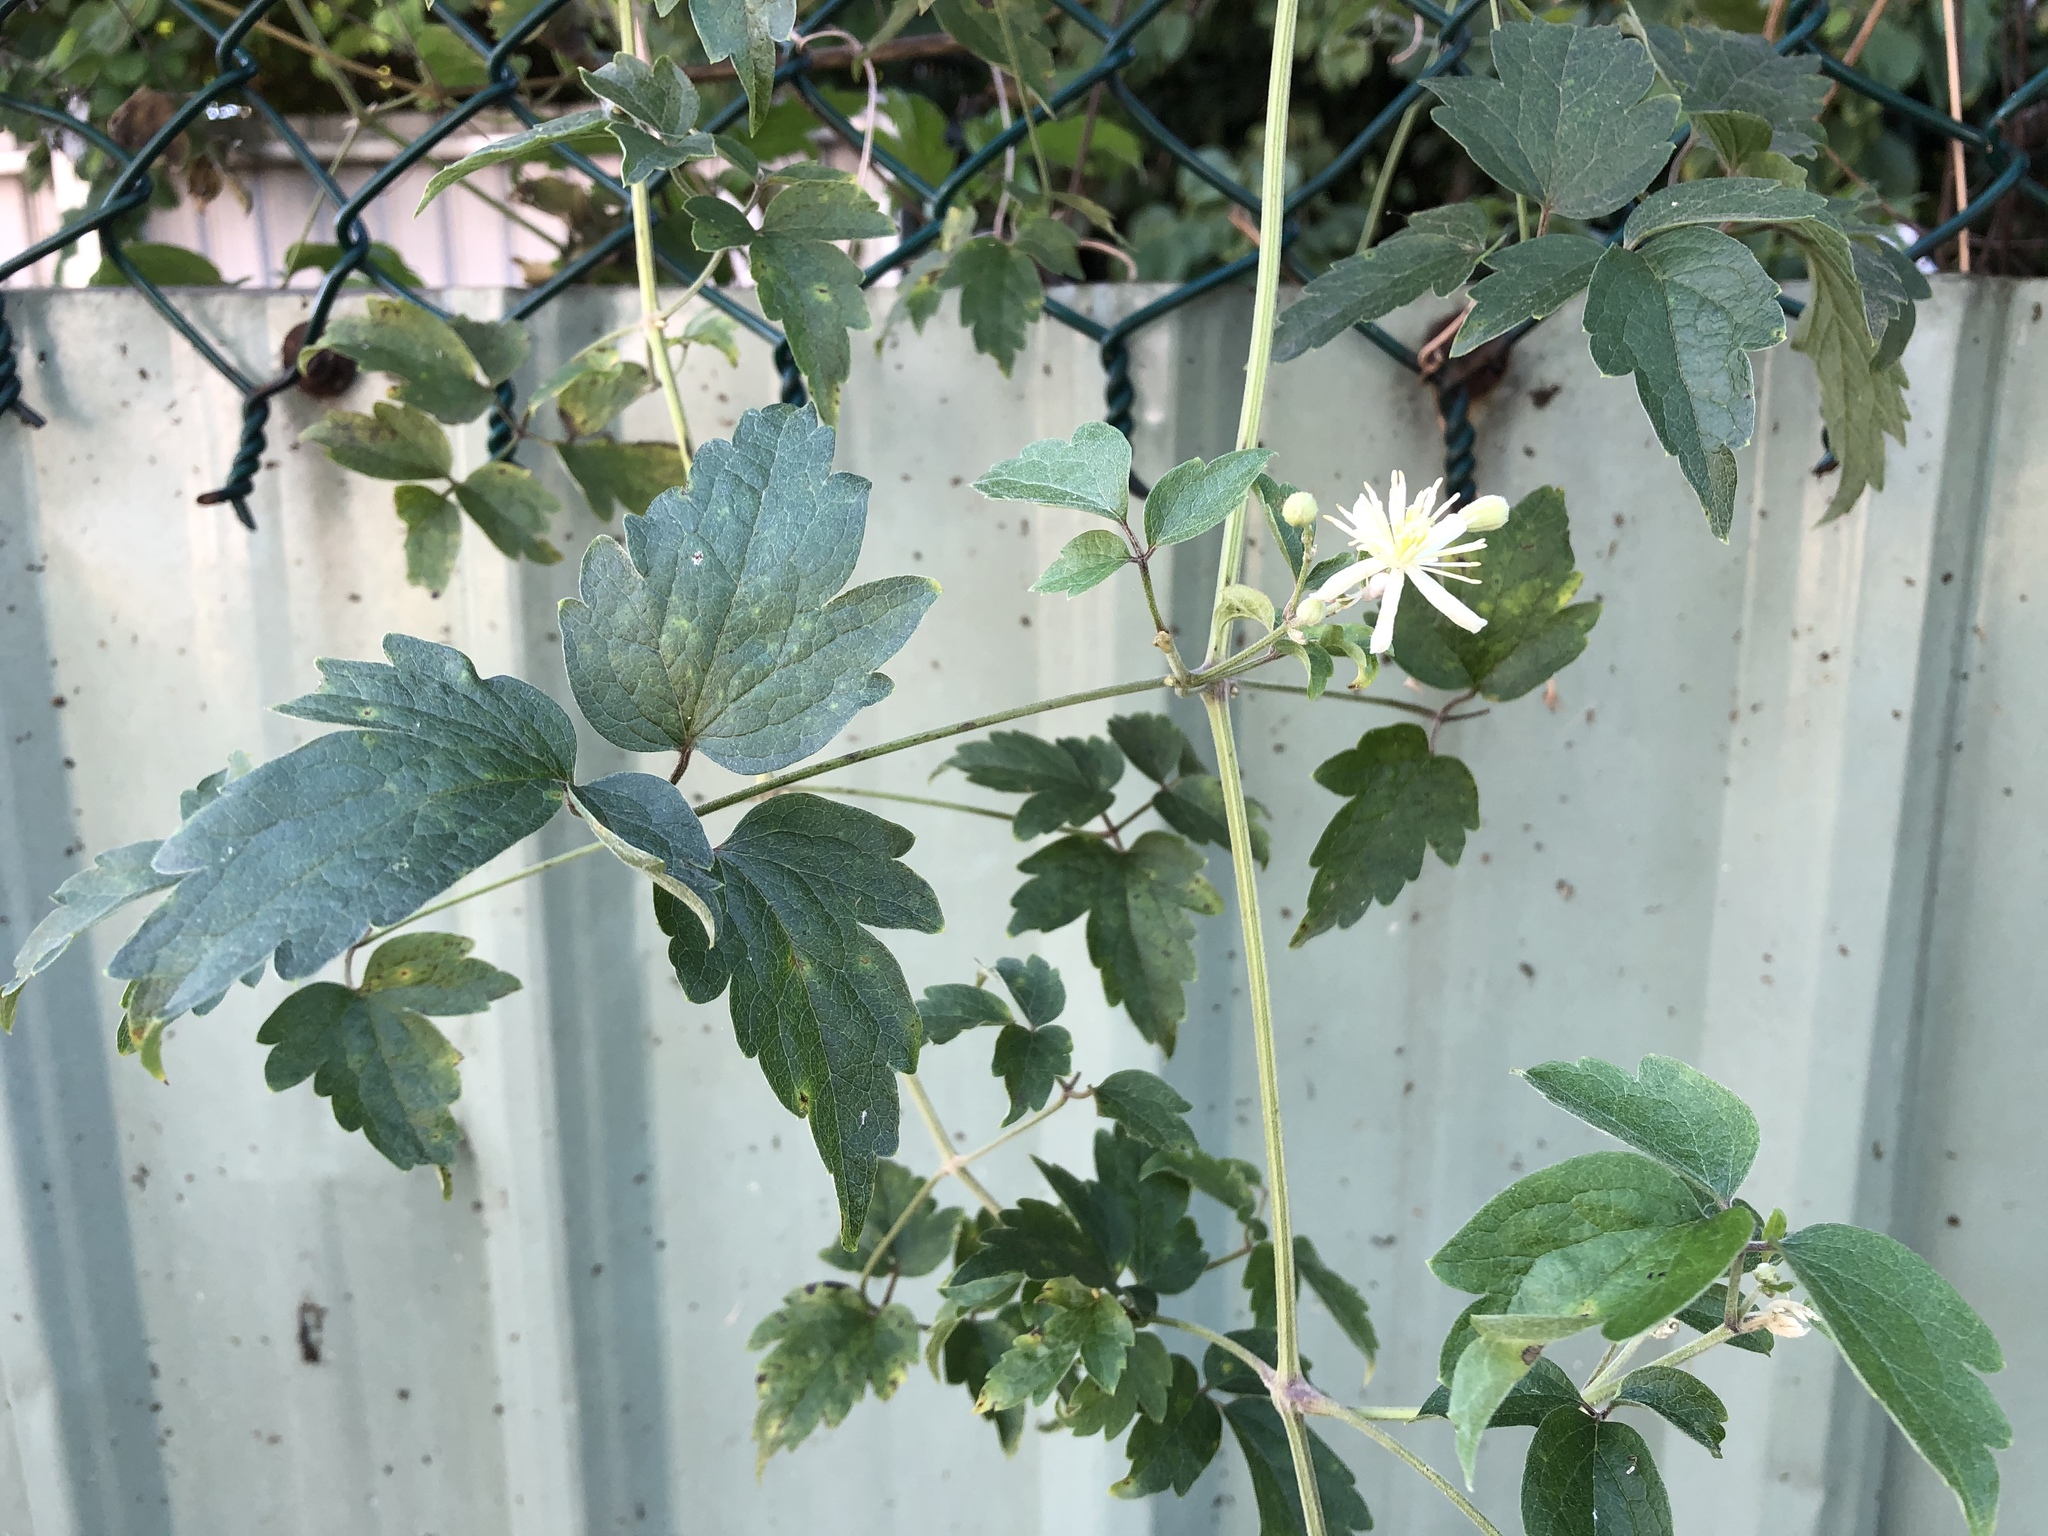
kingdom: Plantae
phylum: Tracheophyta
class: Magnoliopsida
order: Ranunculales
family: Ranunculaceae
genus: Clematis
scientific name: Clematis grata
